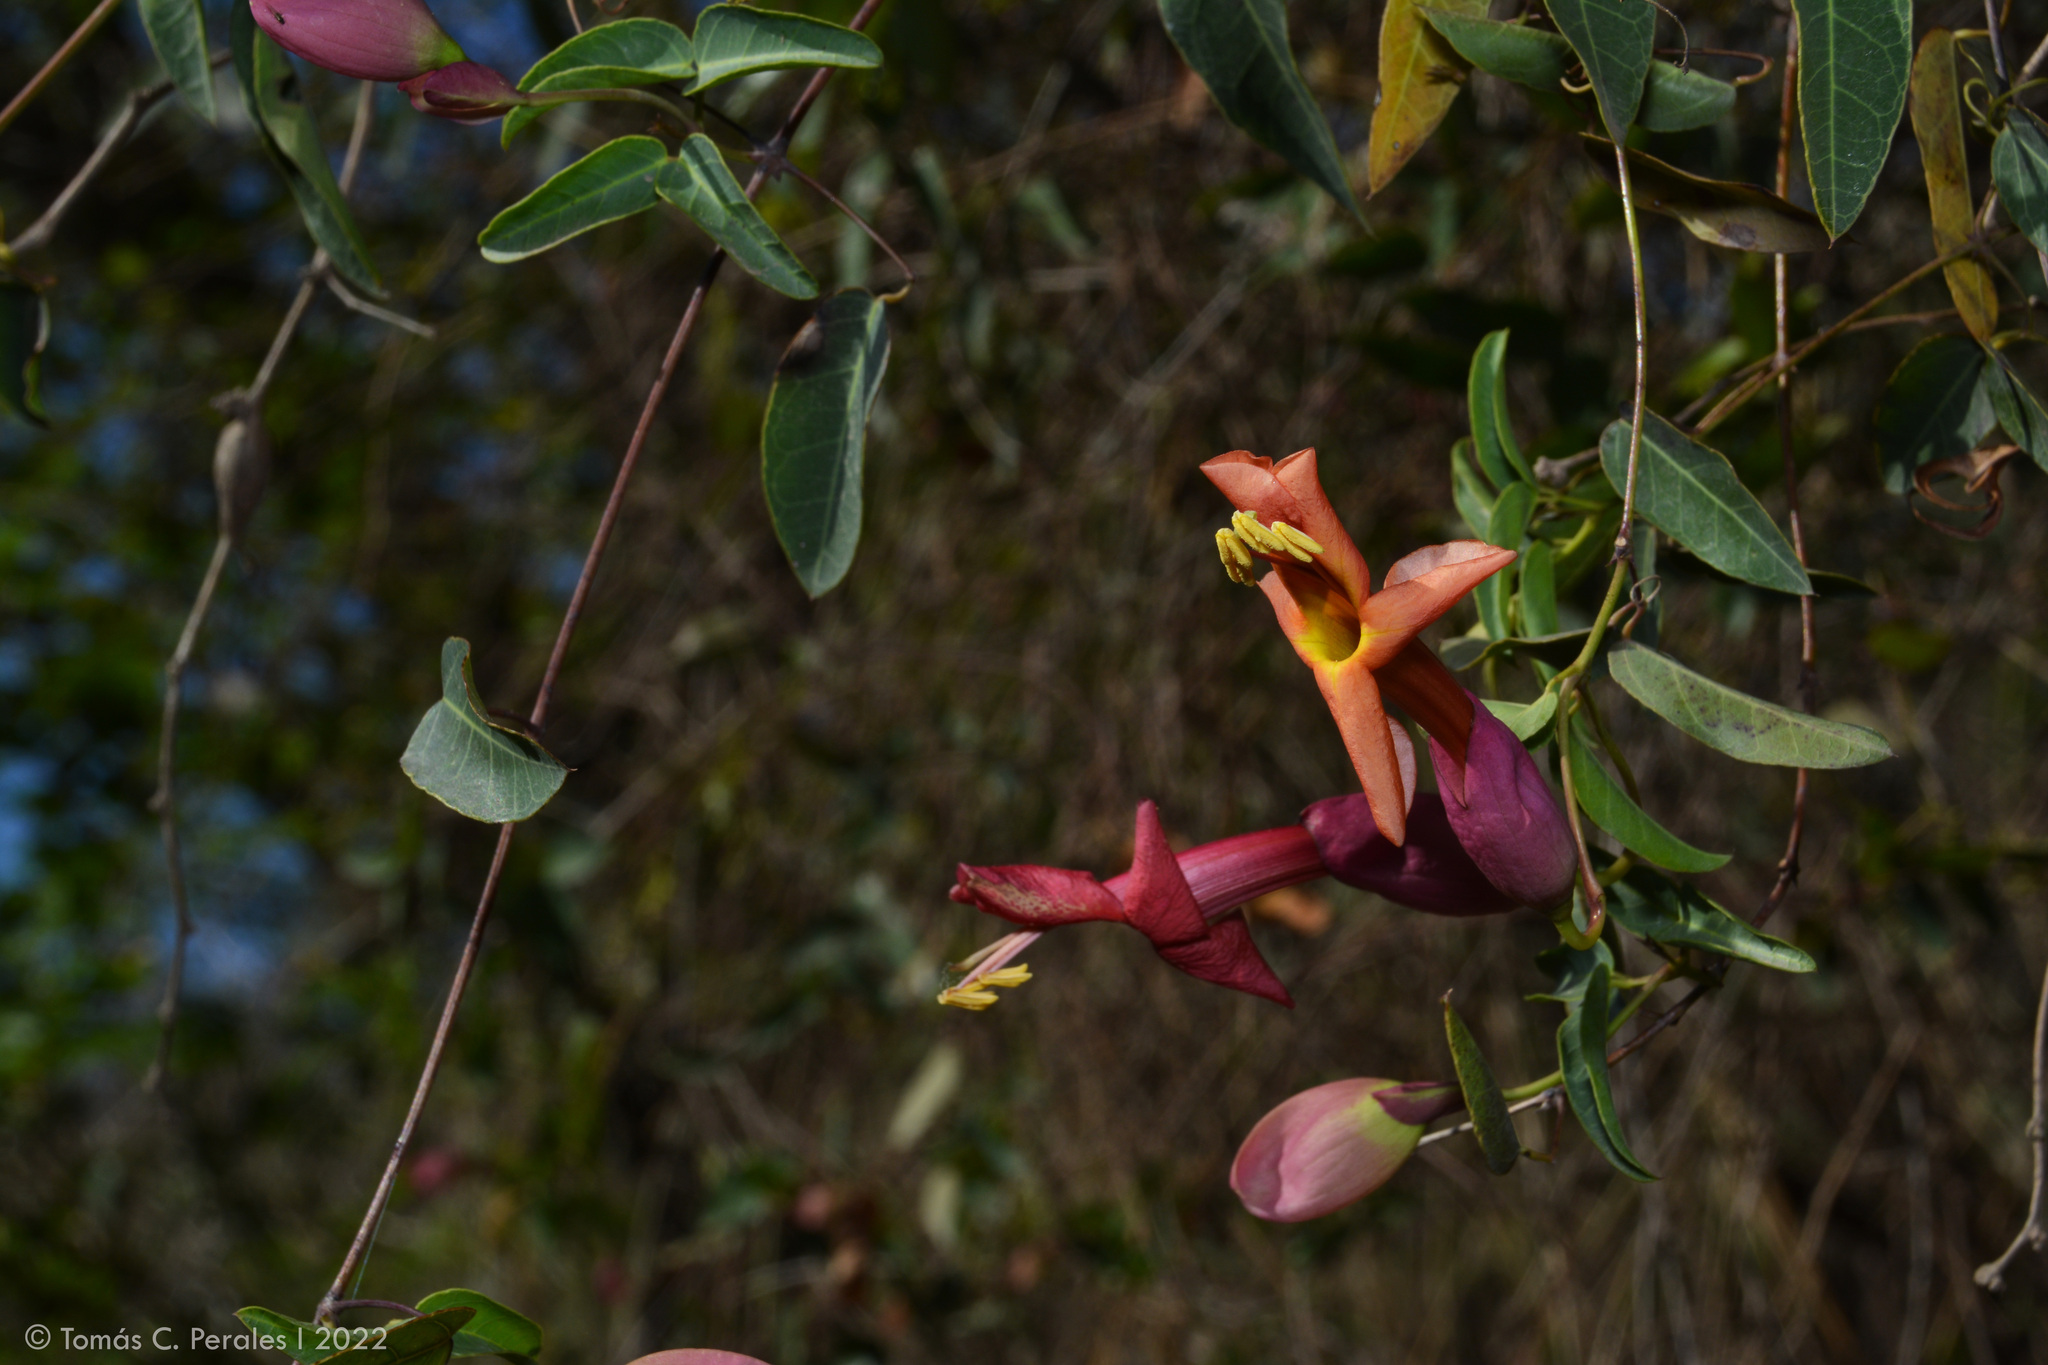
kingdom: Plantae
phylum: Tracheophyta
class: Magnoliopsida
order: Lamiales
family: Bignoniaceae
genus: Dolichandra
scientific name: Dolichandra cynanchoides
